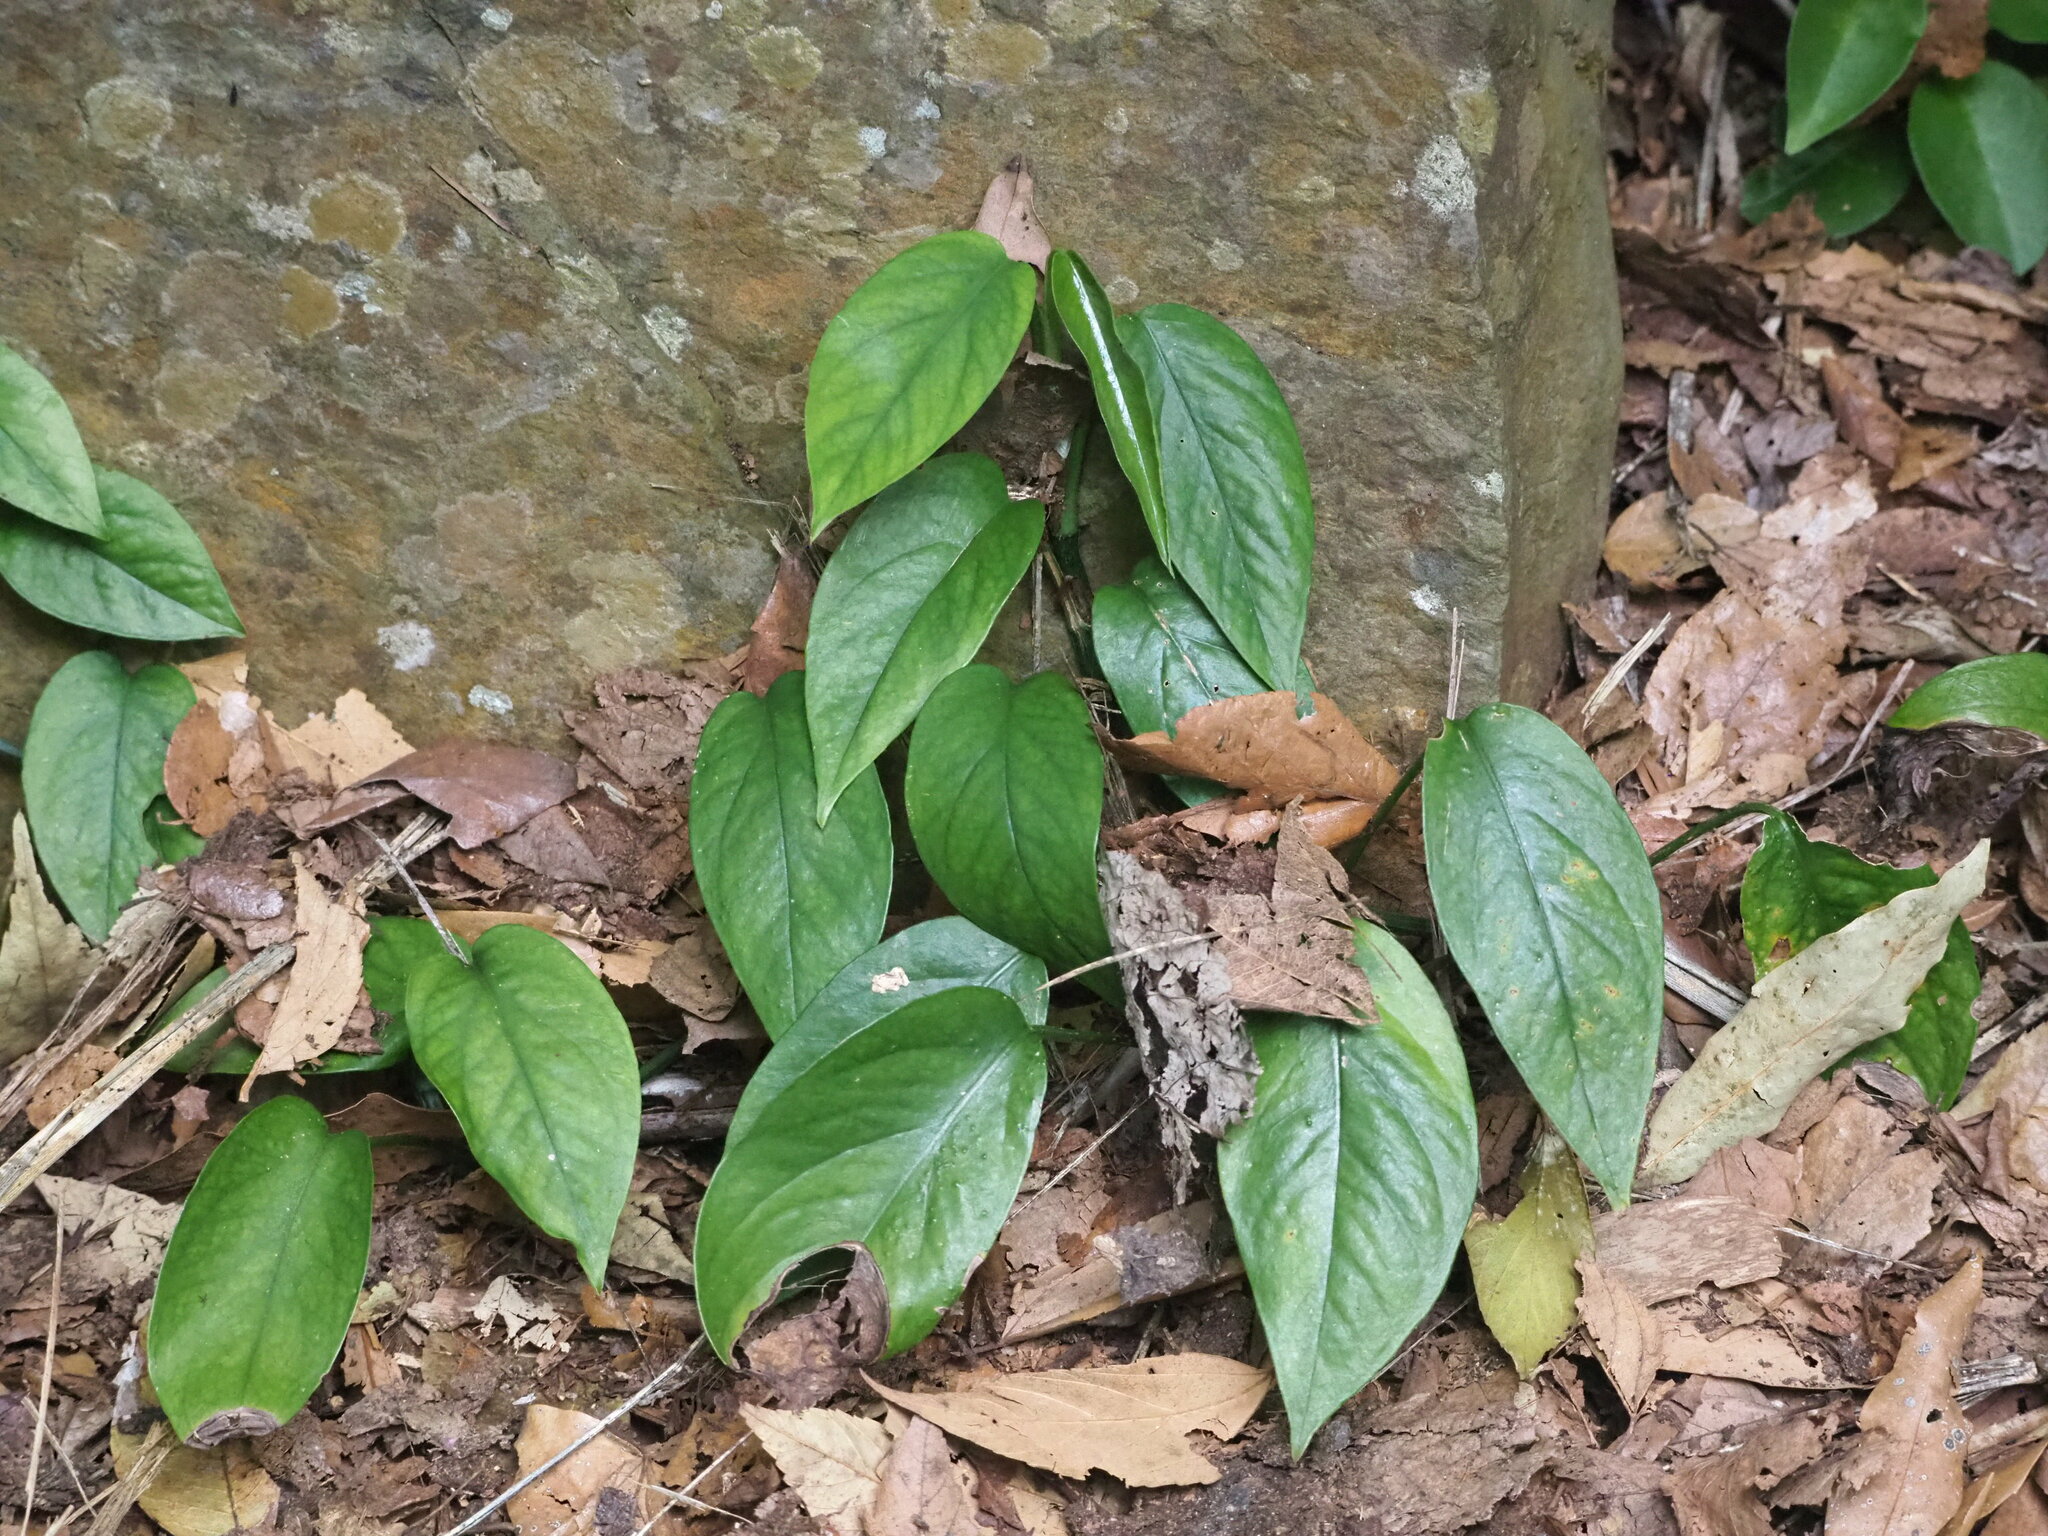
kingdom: Plantae
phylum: Tracheophyta
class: Liliopsida
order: Alismatales
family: Araceae
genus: Epipremnum
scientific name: Epipremnum pinnatum
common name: Centipede tongavine
